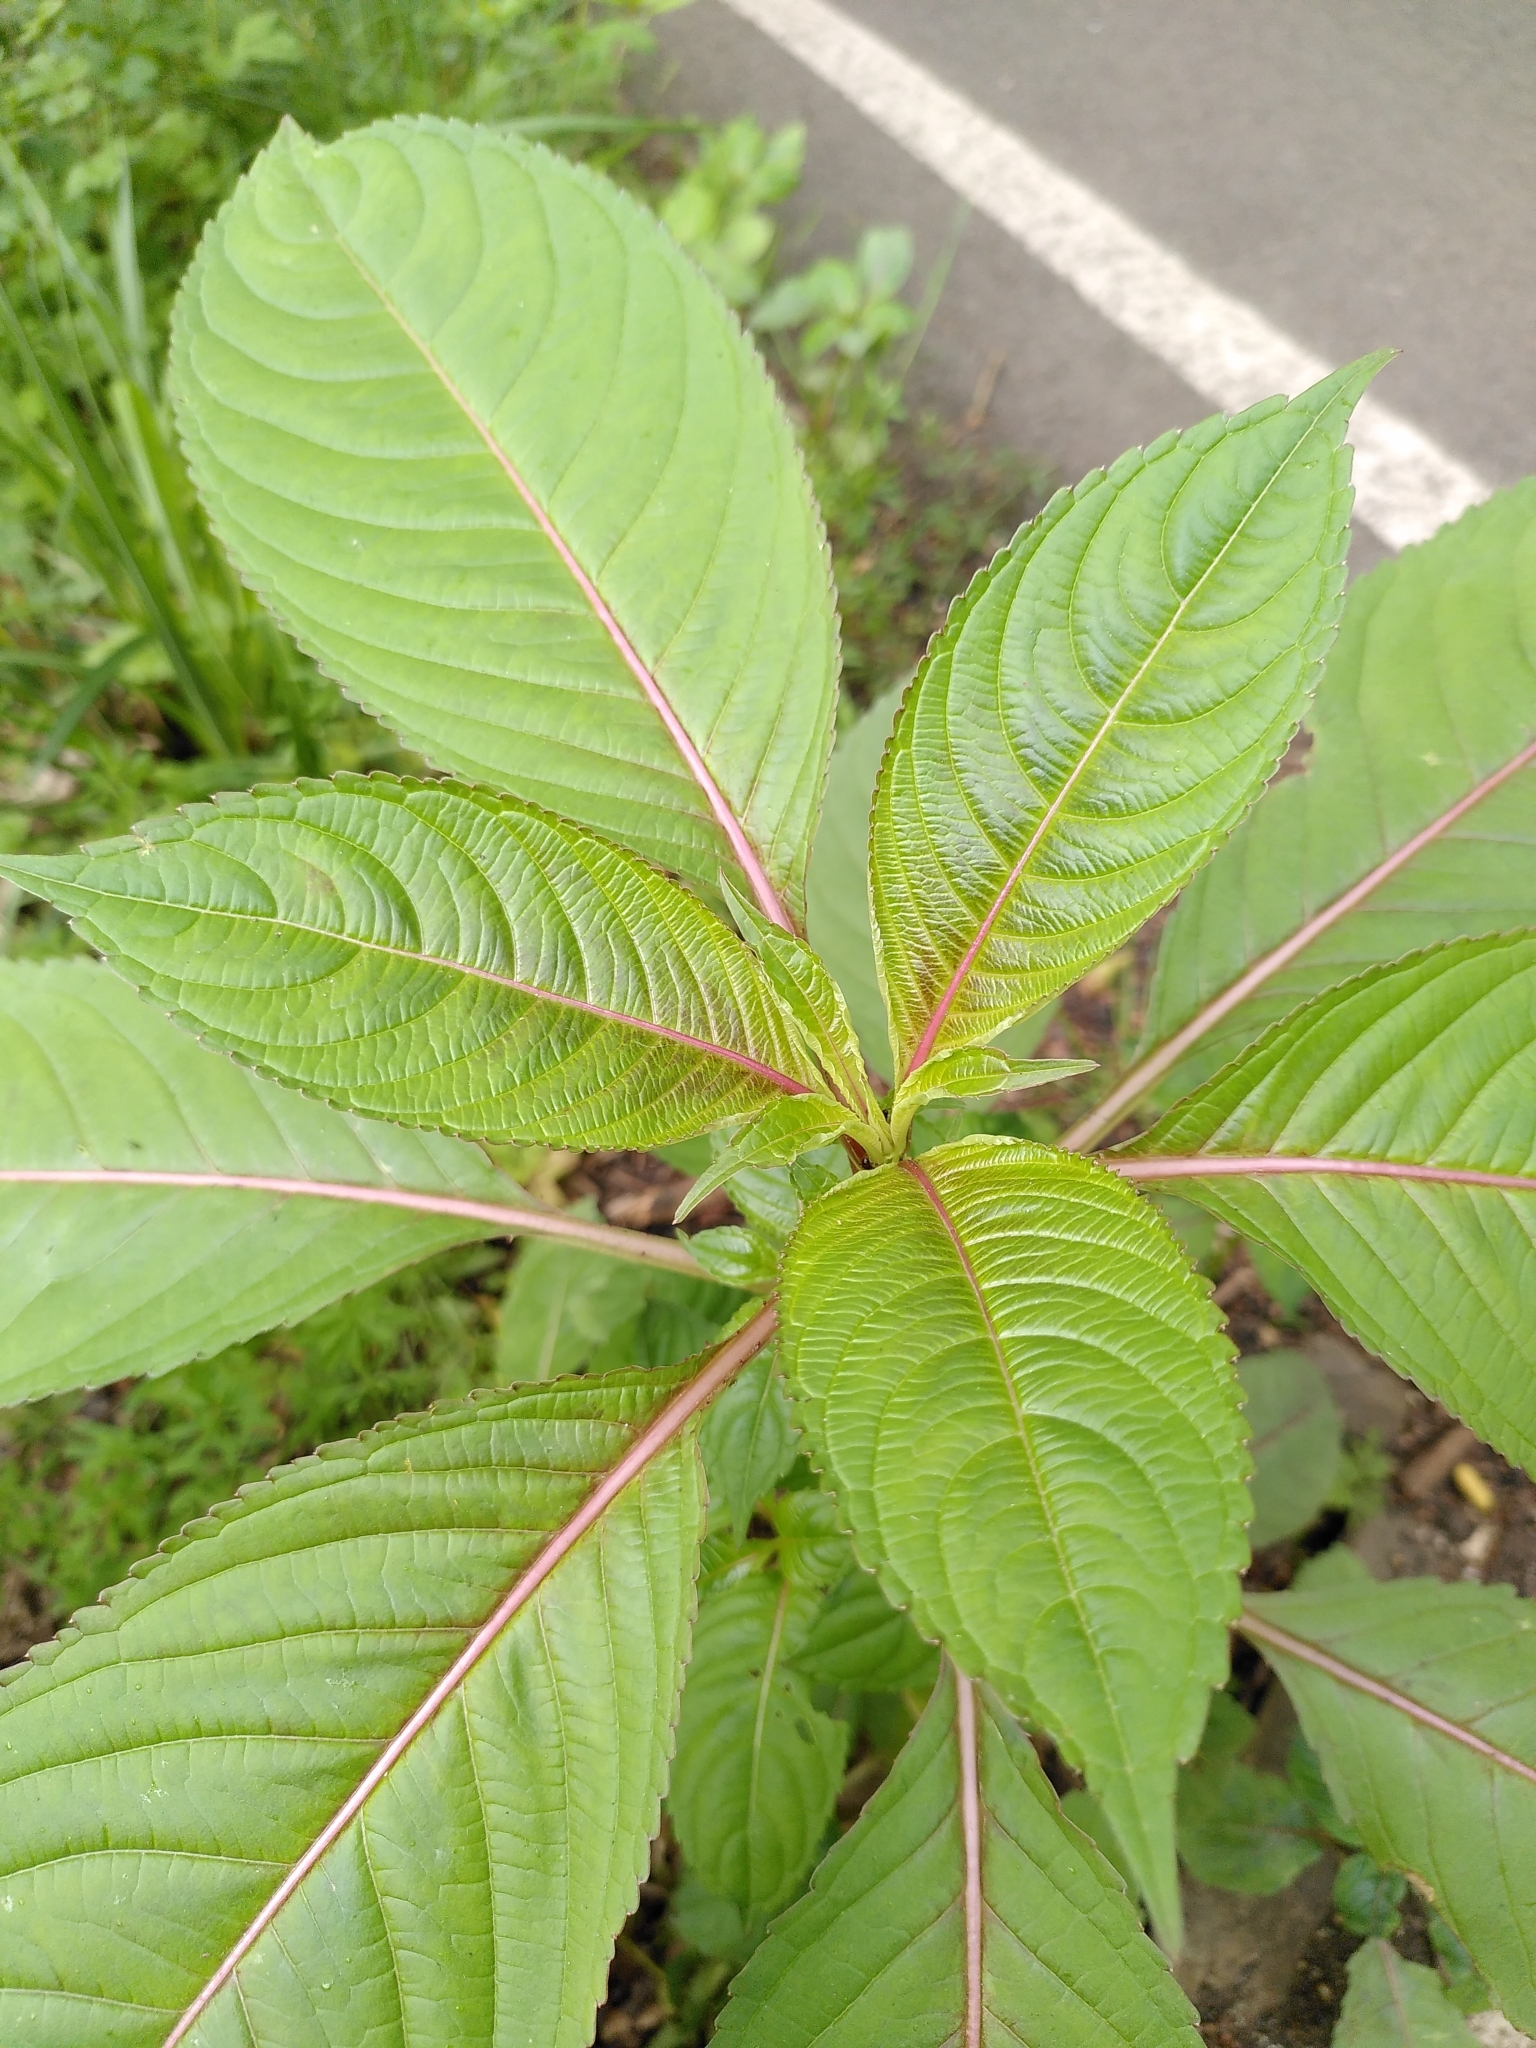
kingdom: Plantae
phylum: Tracheophyta
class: Magnoliopsida
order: Ericales
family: Balsaminaceae
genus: Impatiens
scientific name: Impatiens glandulifera
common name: Himalayan balsam
